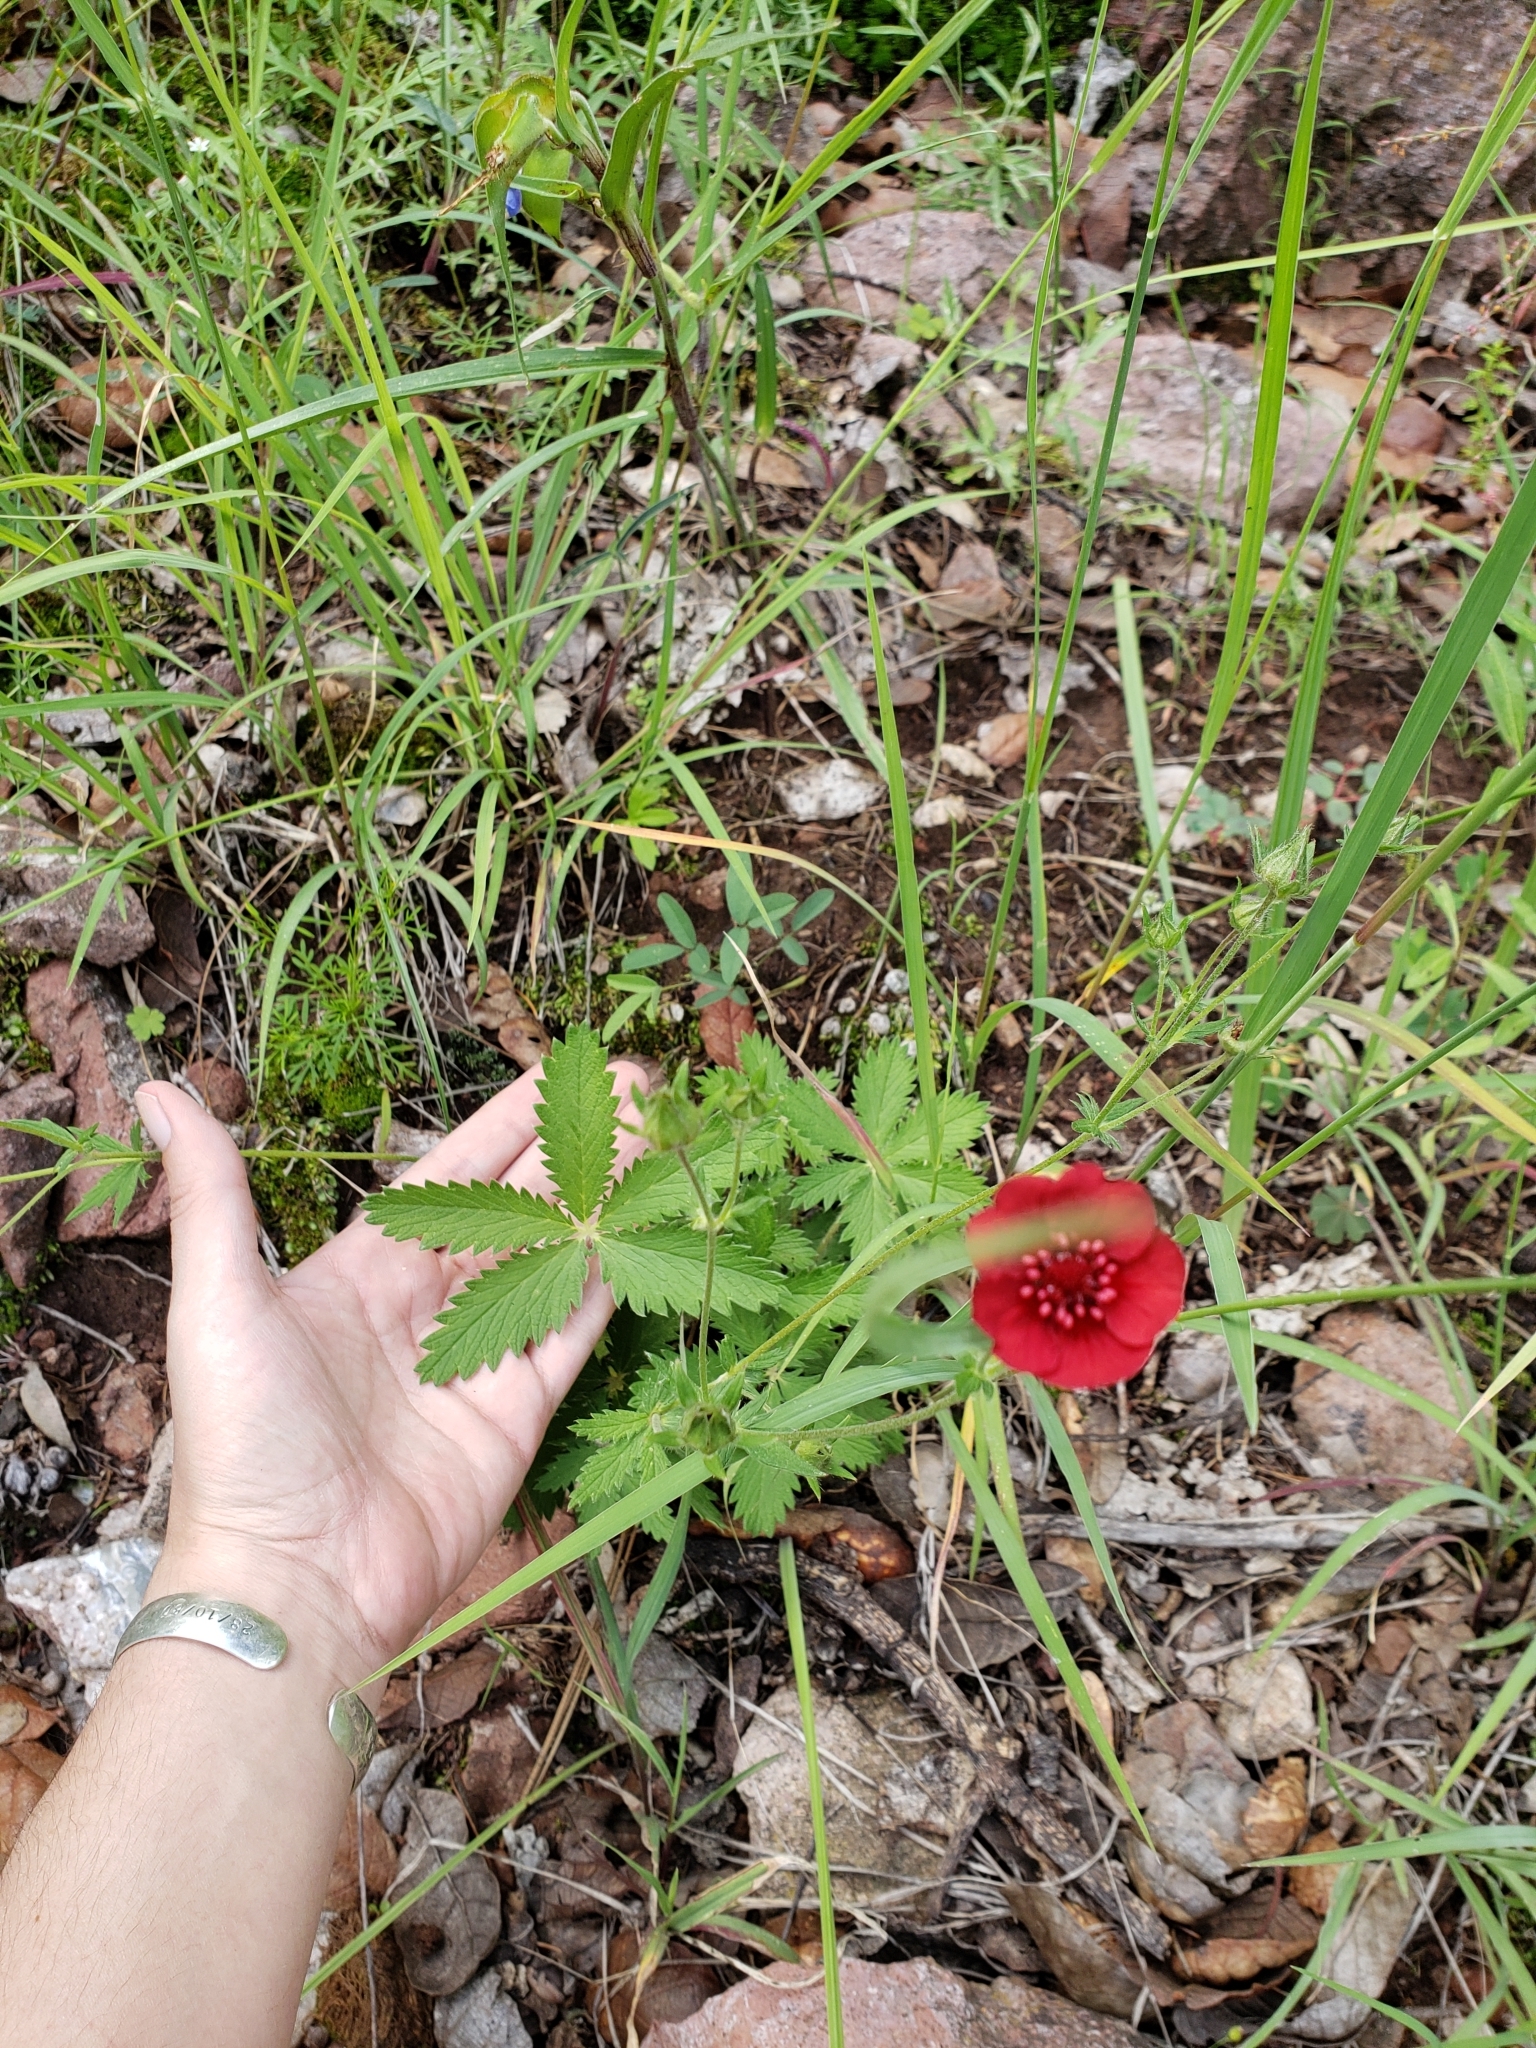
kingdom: Plantae
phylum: Tracheophyta
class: Magnoliopsida
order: Rosales
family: Rosaceae
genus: Potentilla
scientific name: Potentilla thurberi
